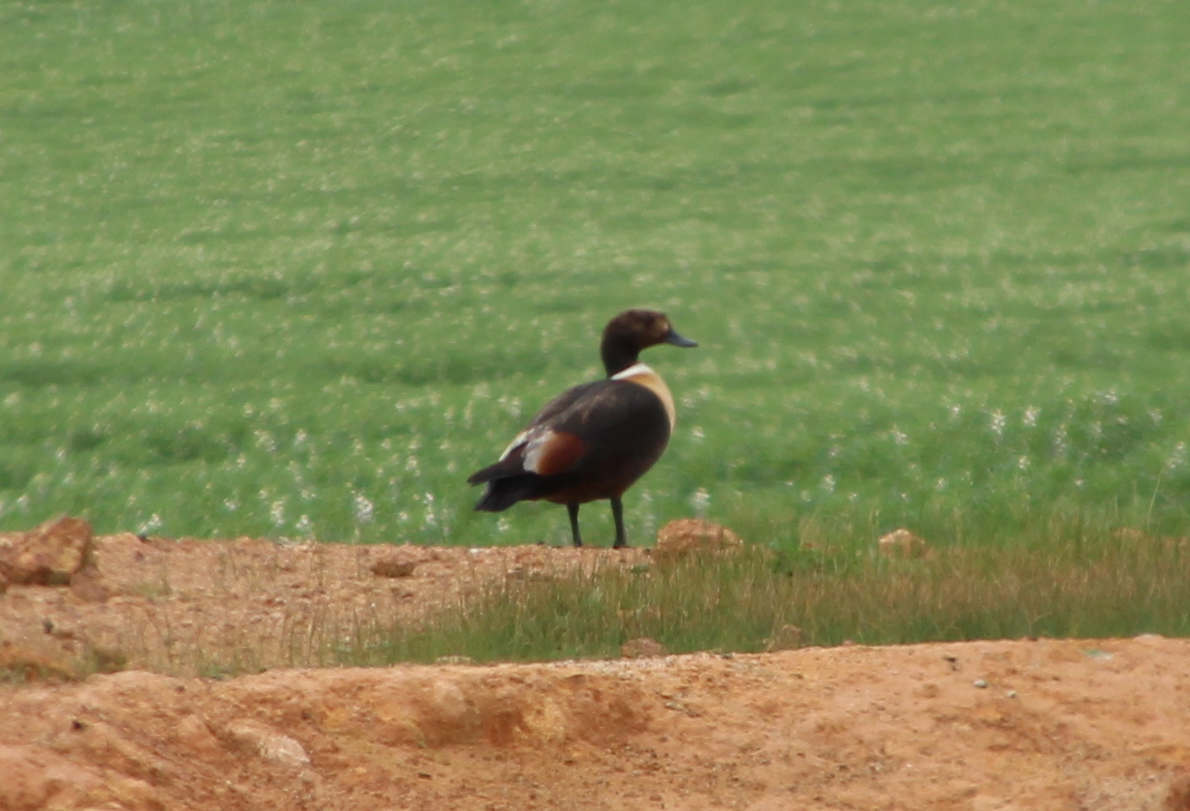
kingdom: Animalia
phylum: Chordata
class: Aves
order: Anseriformes
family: Anatidae
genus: Tadorna
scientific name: Tadorna tadornoides
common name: Australian shelduck
